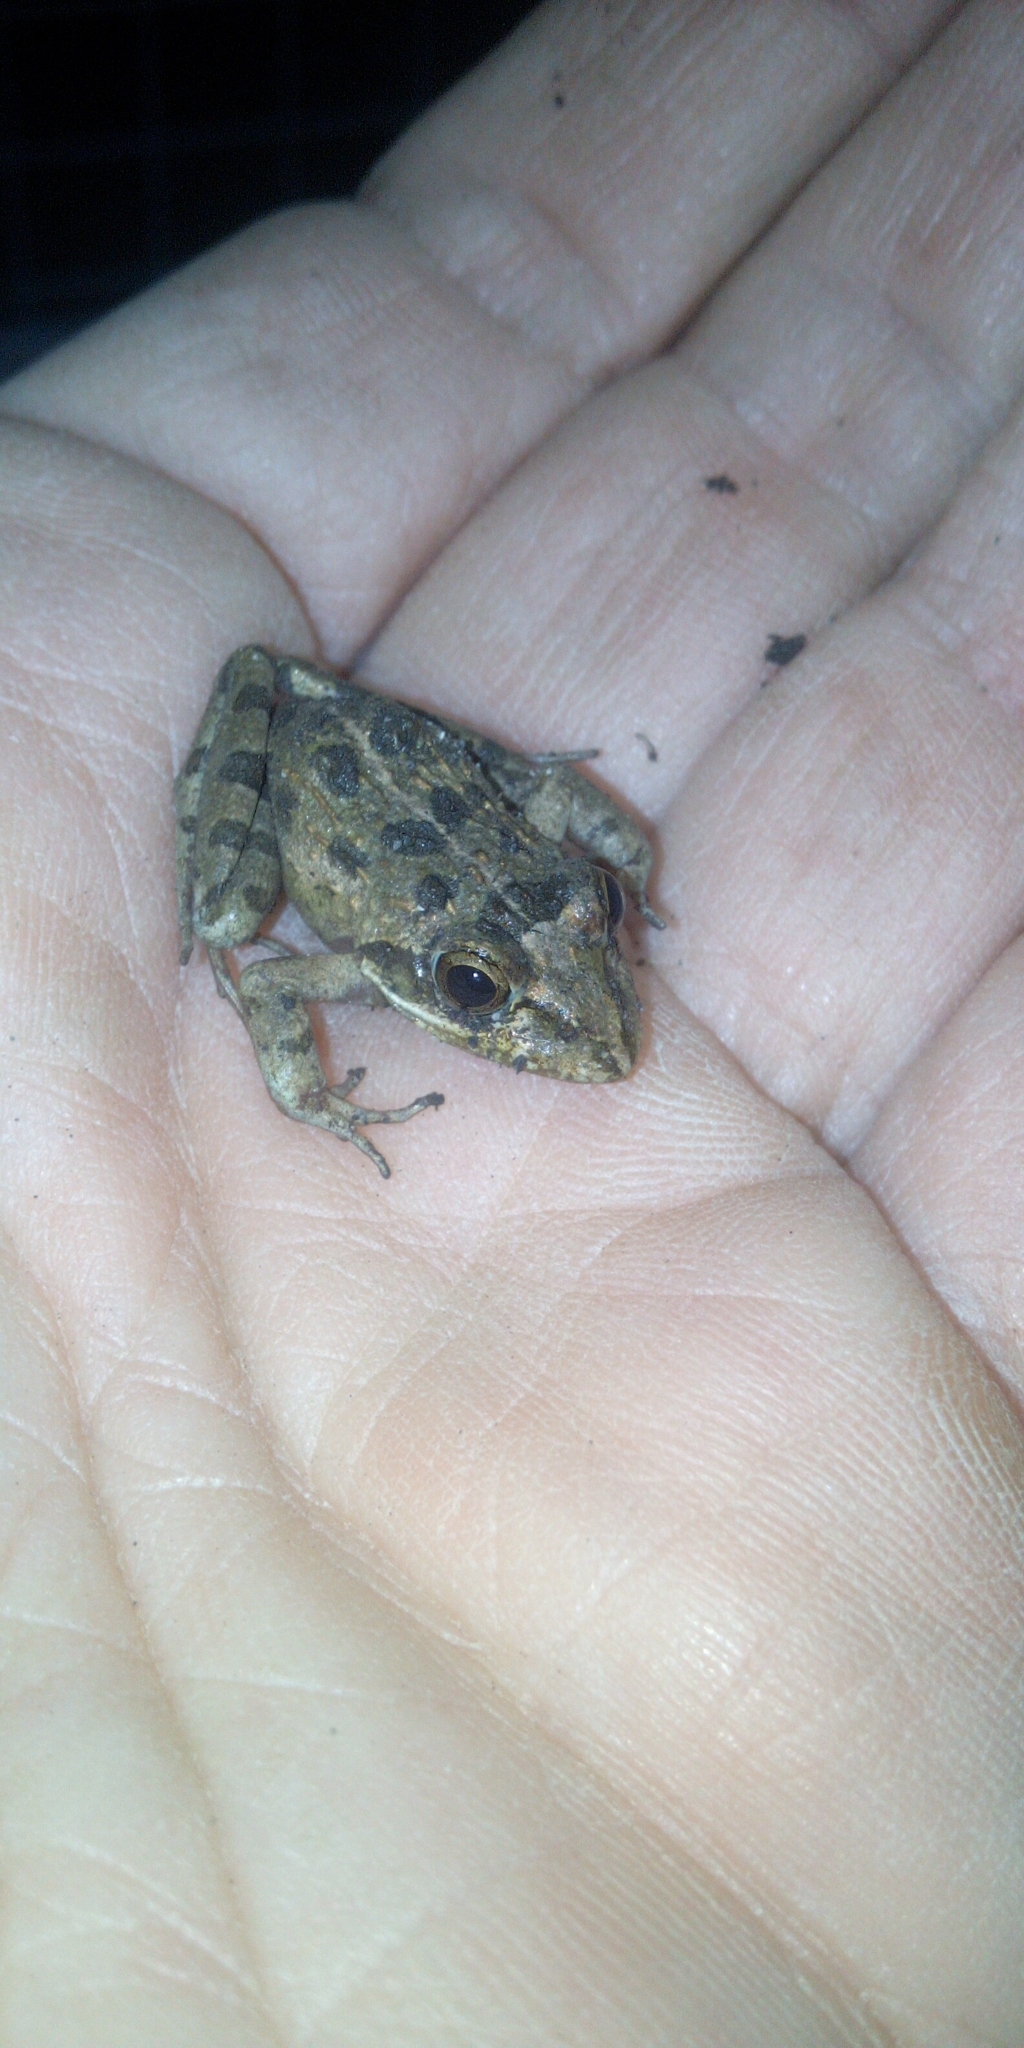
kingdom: Animalia
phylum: Chordata
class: Amphibia
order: Anura
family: Pyxicephalidae
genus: Strongylopus
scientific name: Strongylopus grayii
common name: Gray's stream frog
